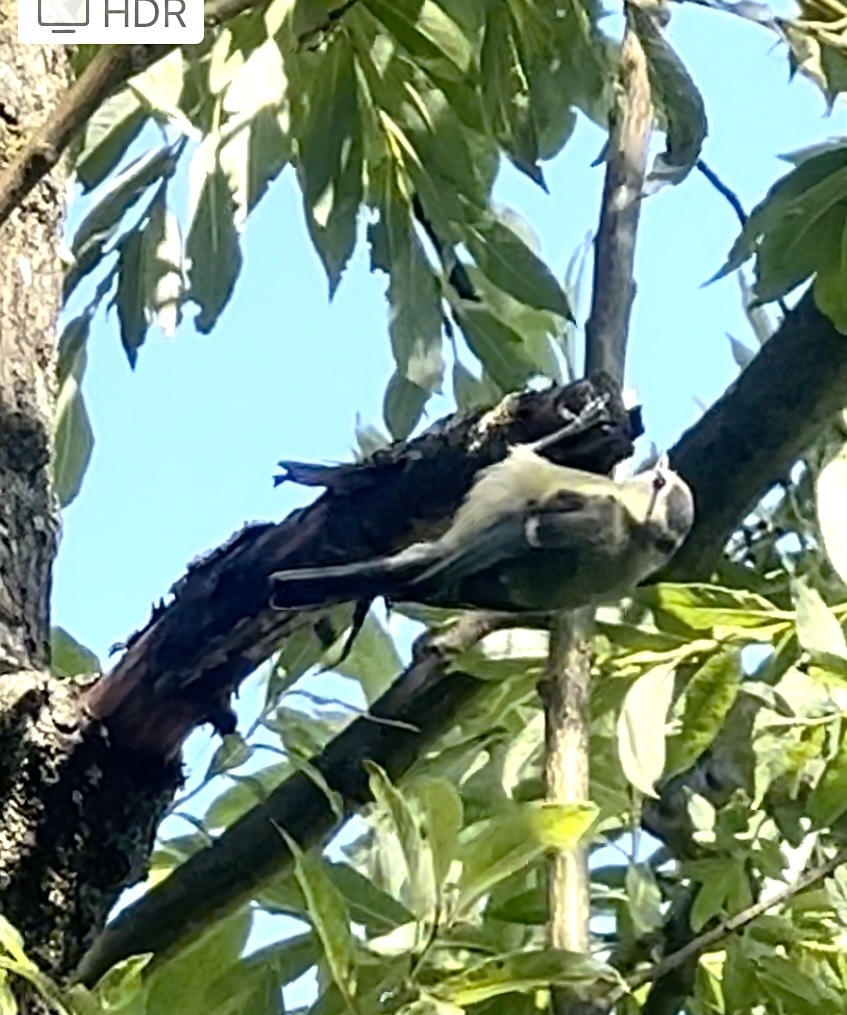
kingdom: Animalia
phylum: Chordata
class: Aves
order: Passeriformes
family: Paridae
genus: Cyanistes
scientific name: Cyanistes caeruleus
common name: Eurasian blue tit
